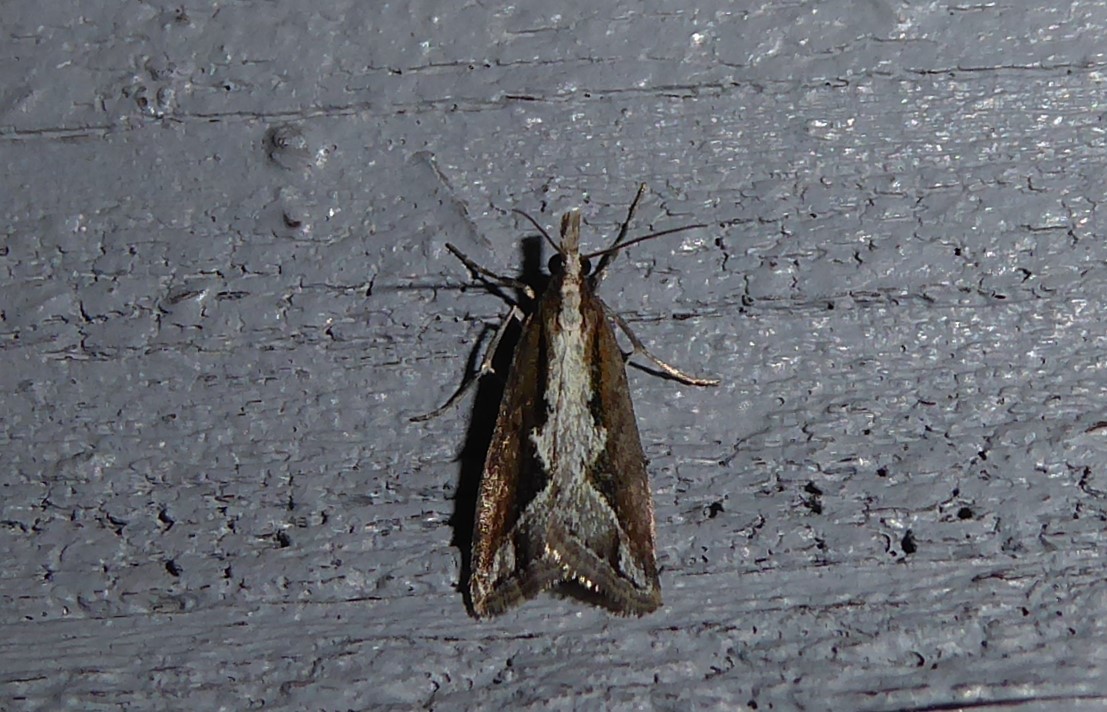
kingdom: Animalia
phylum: Arthropoda
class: Insecta
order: Lepidoptera
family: Crambidae
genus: Eudonia
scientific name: Eudonia steropaea
